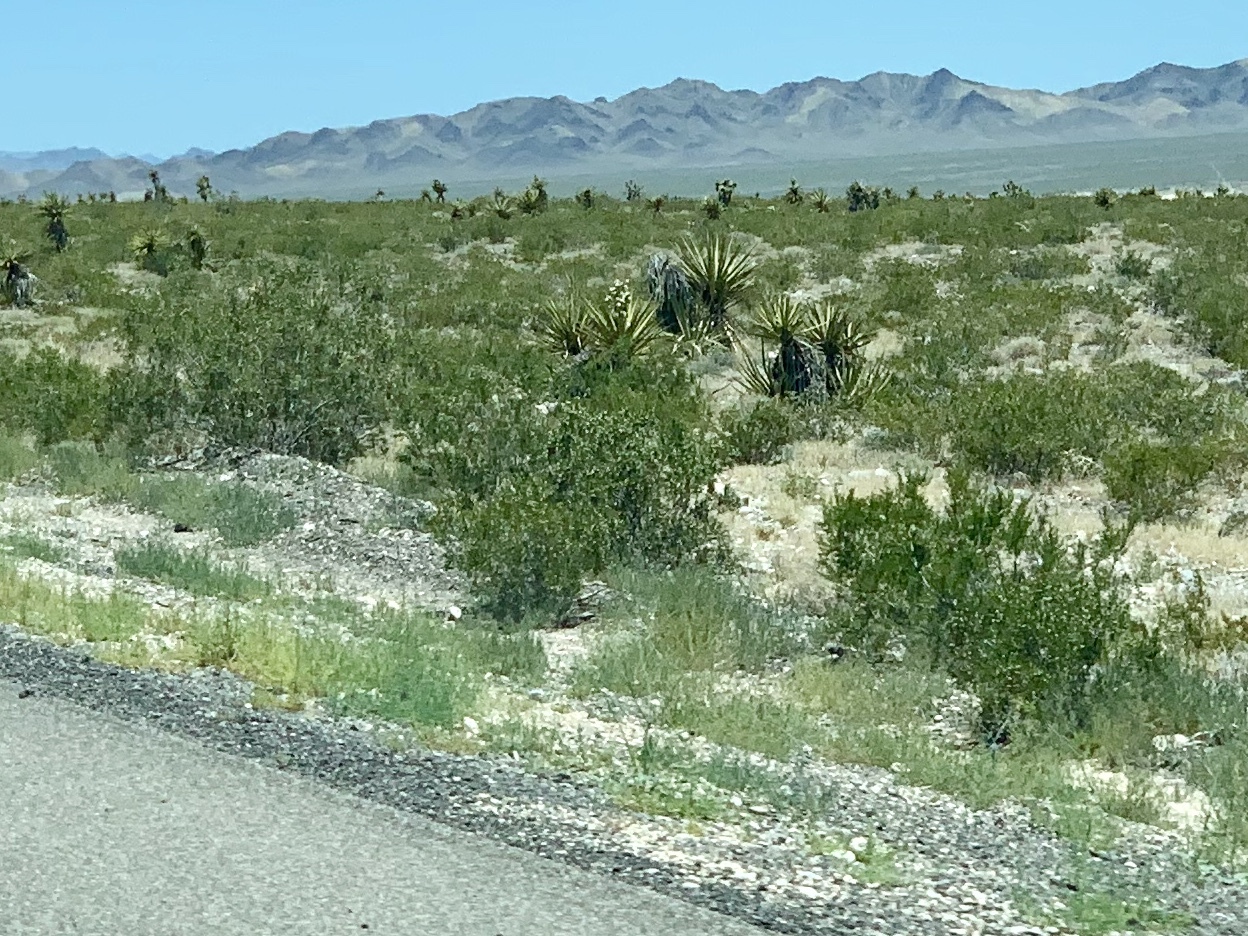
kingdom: Plantae
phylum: Tracheophyta
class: Magnoliopsida
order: Zygophyllales
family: Zygophyllaceae
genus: Larrea
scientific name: Larrea tridentata
